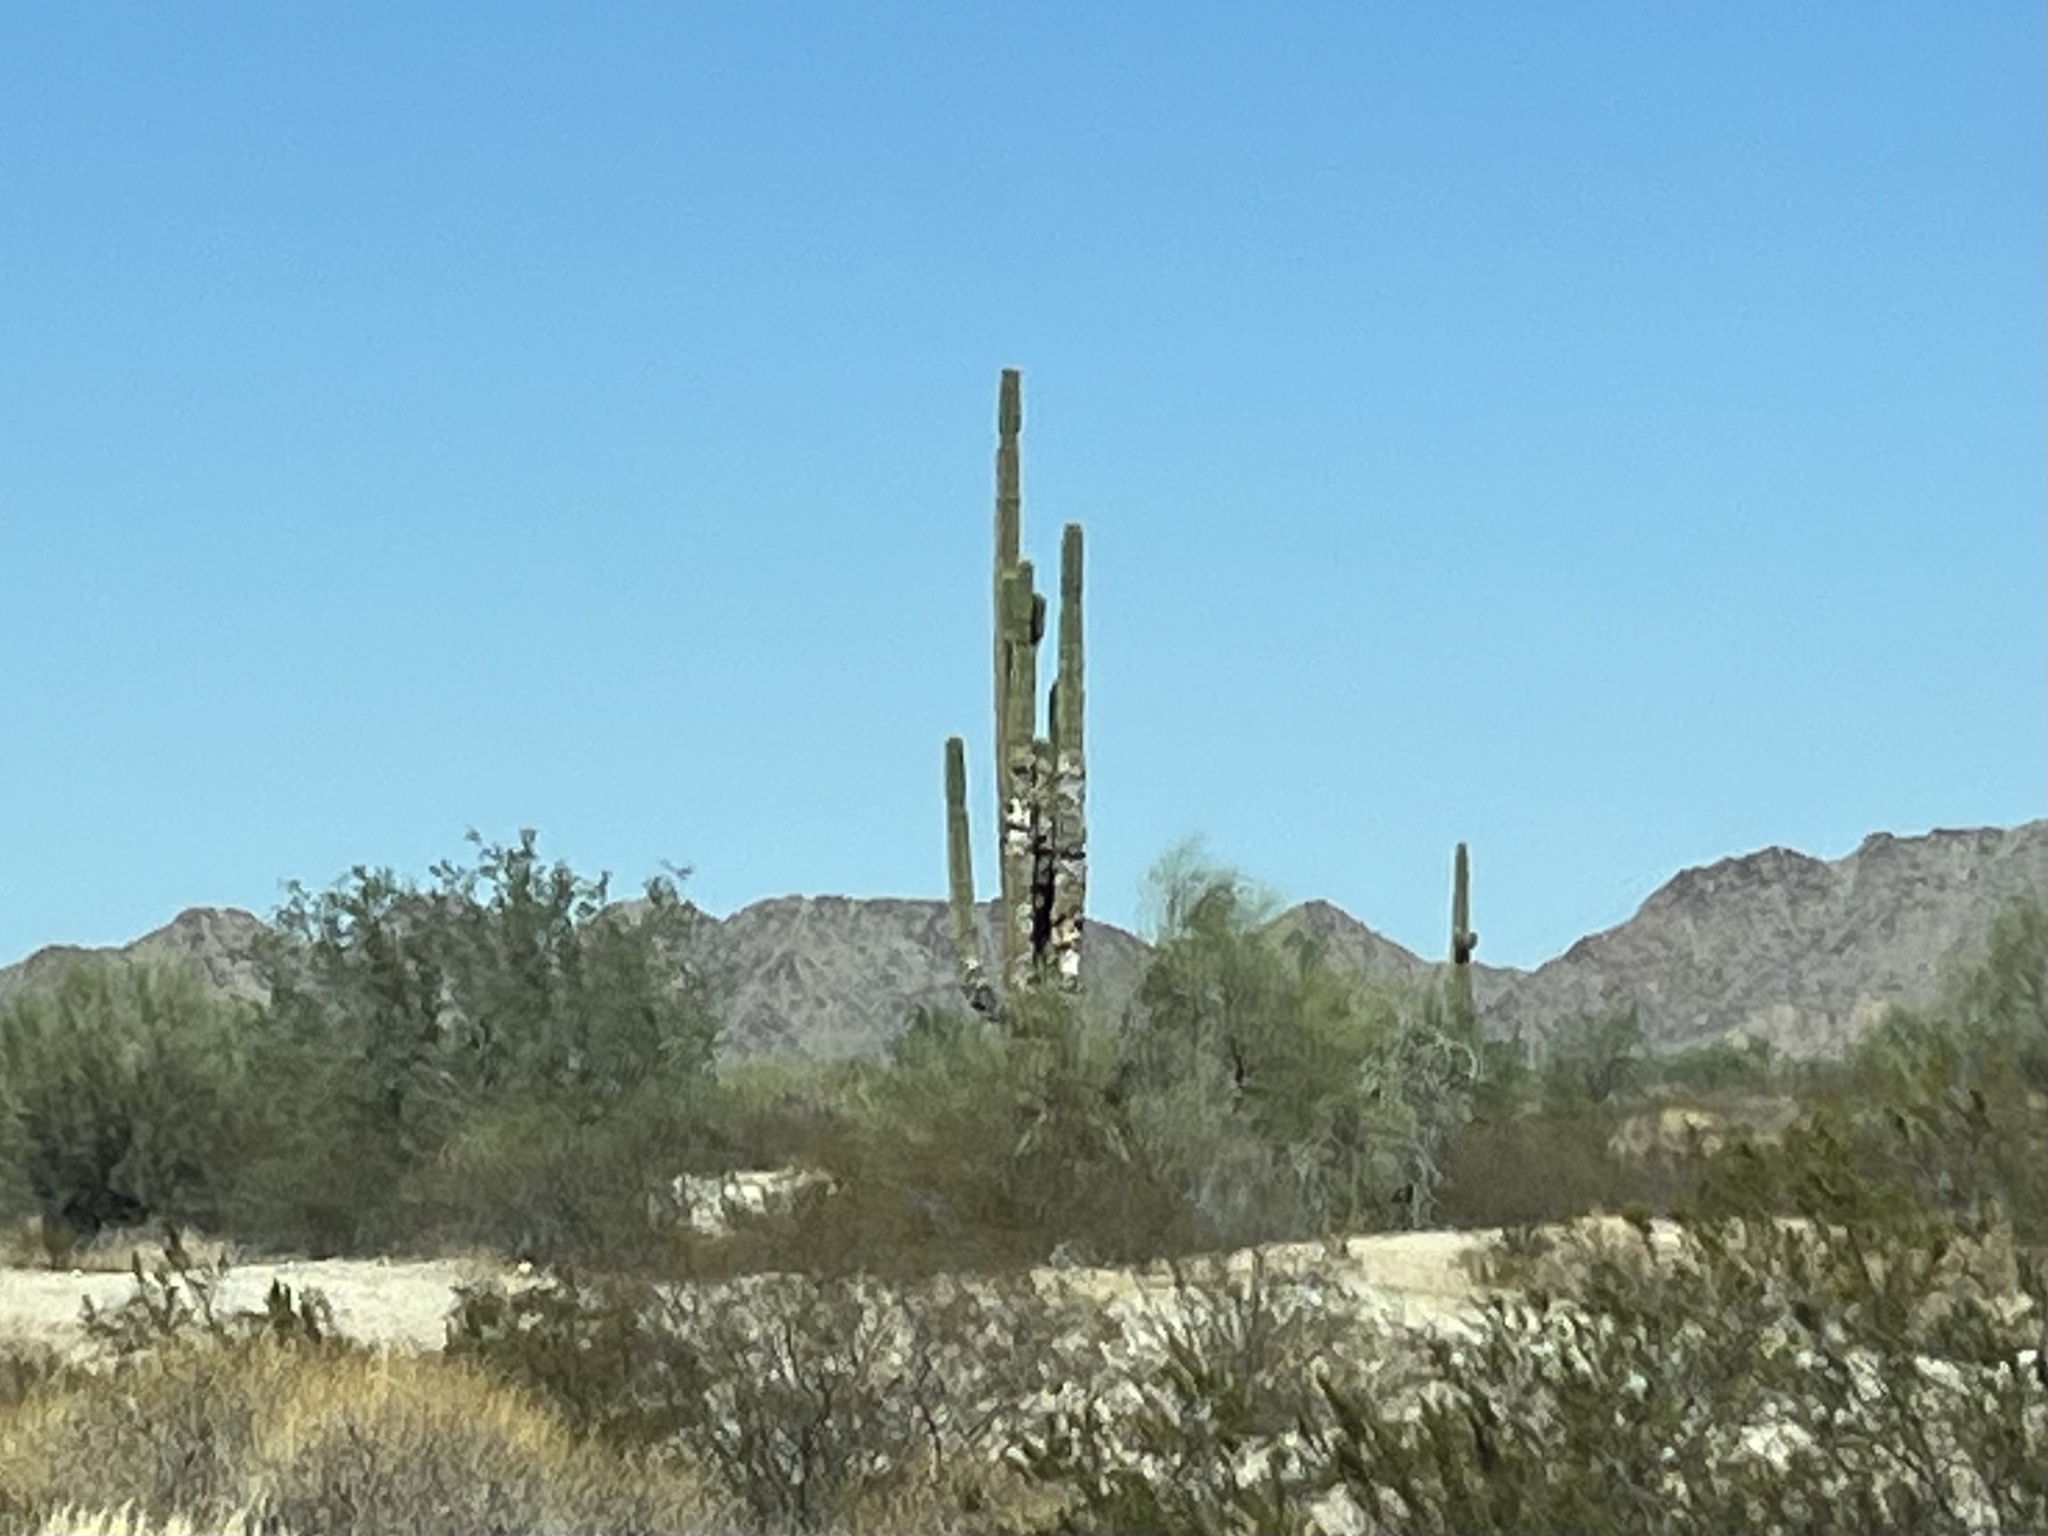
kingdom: Plantae
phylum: Tracheophyta
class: Magnoliopsida
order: Caryophyllales
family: Cactaceae
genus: Carnegiea
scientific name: Carnegiea gigantea
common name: Saguaro
